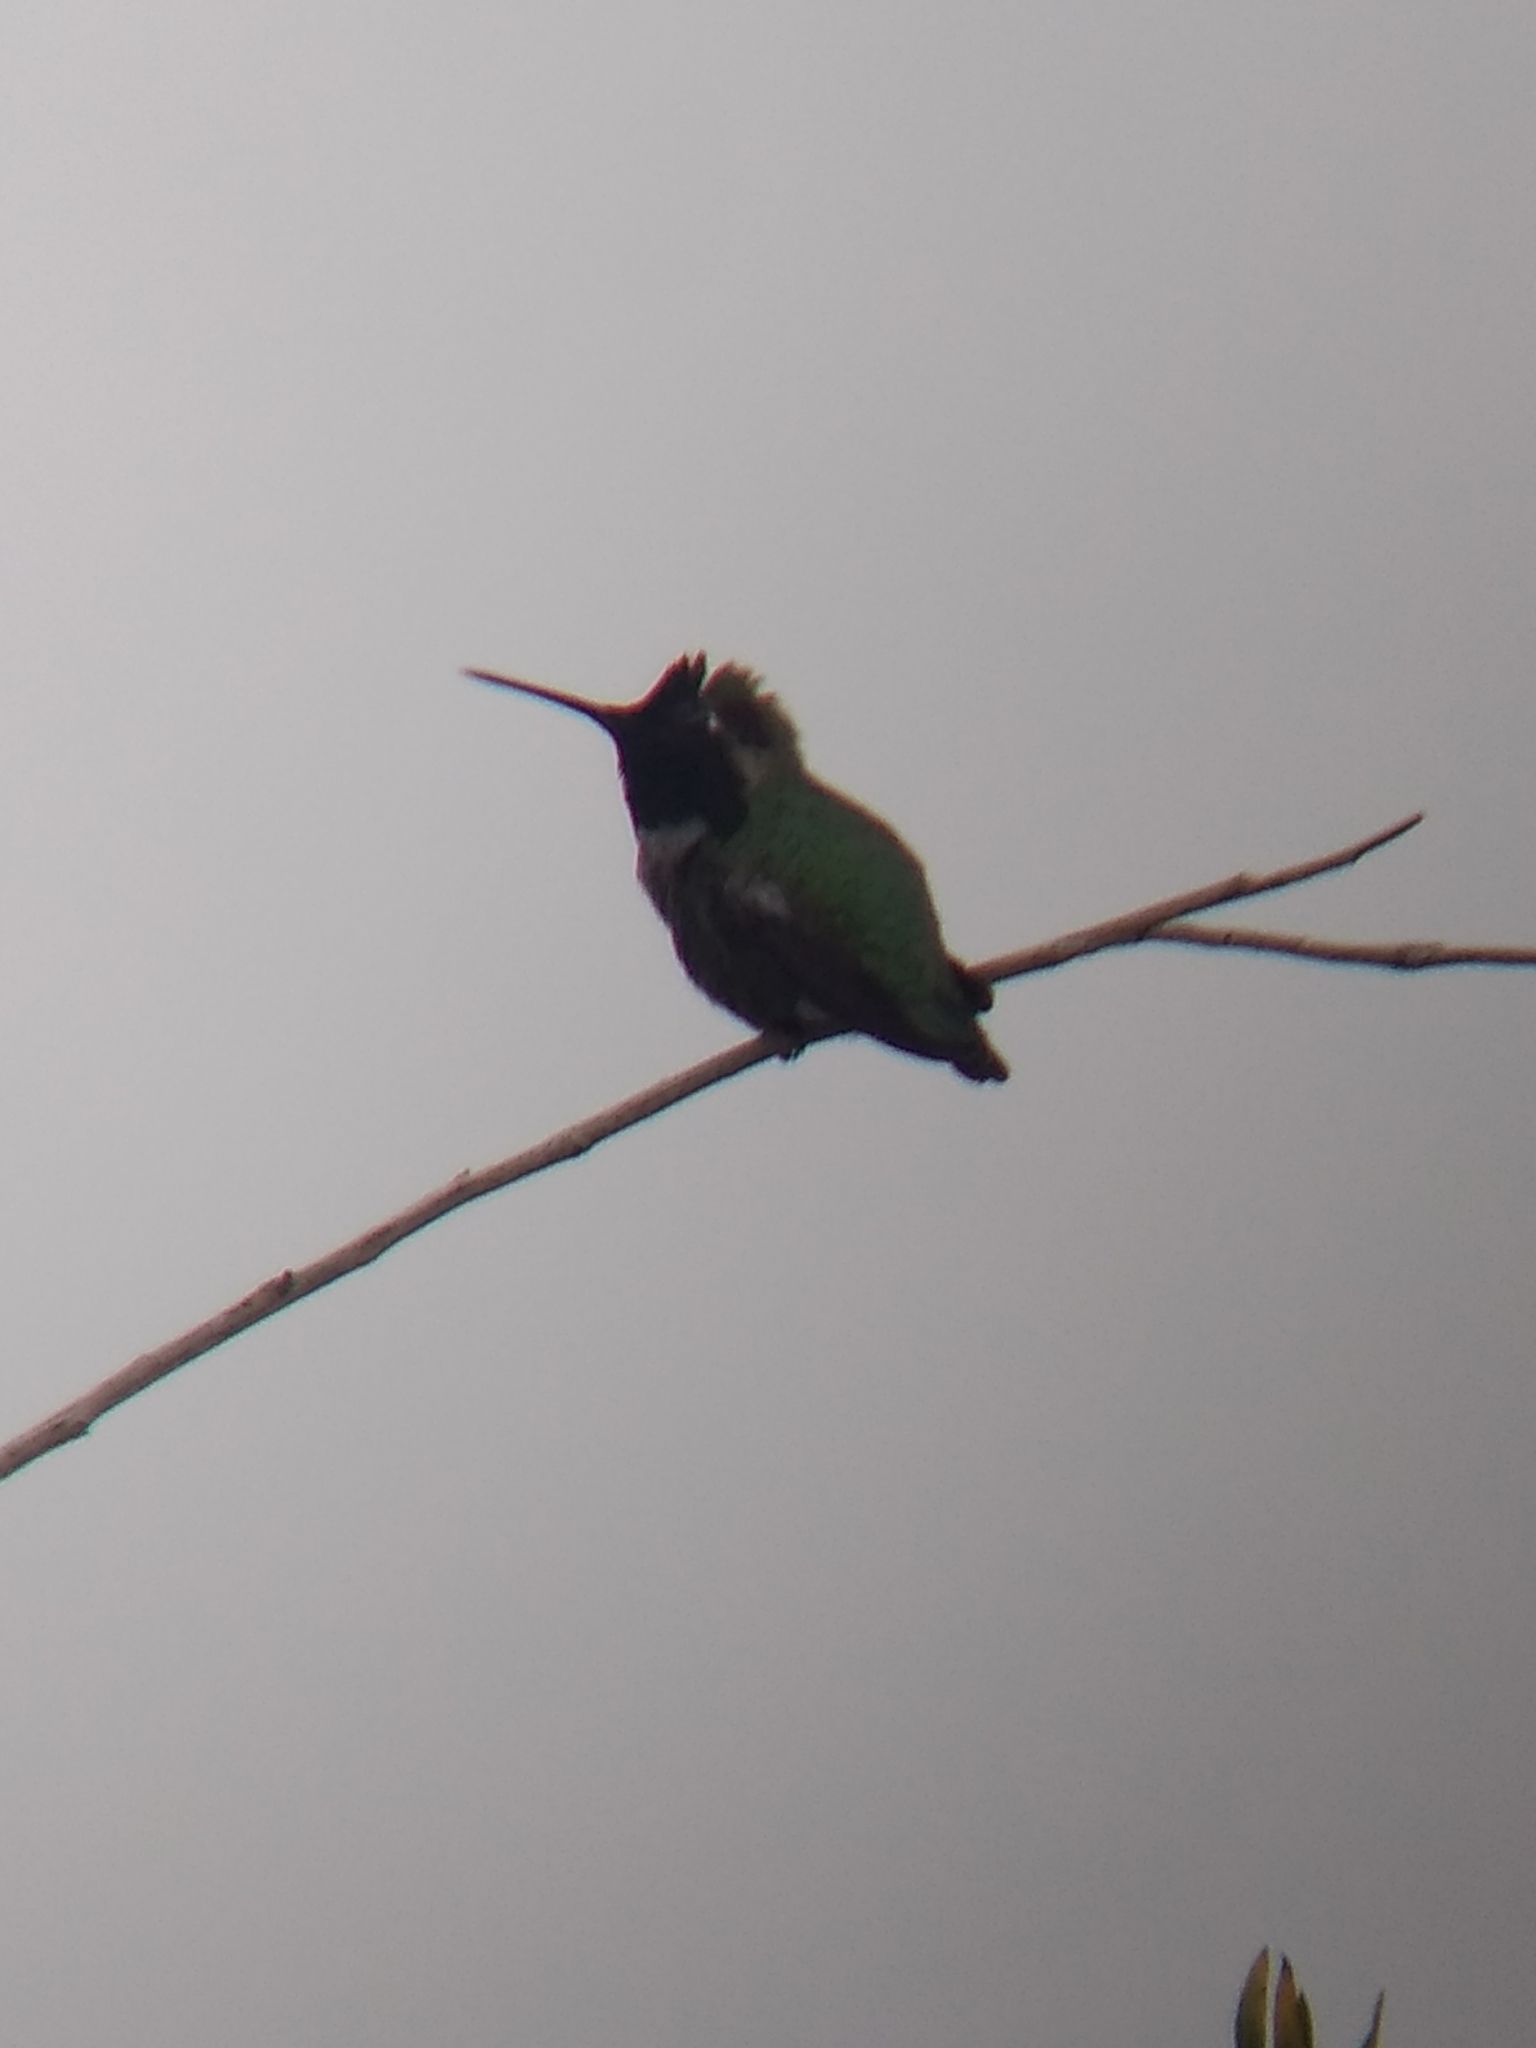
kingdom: Animalia
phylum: Chordata
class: Aves
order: Apodiformes
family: Trochilidae
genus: Calypte
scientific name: Calypte anna
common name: Anna's hummingbird
